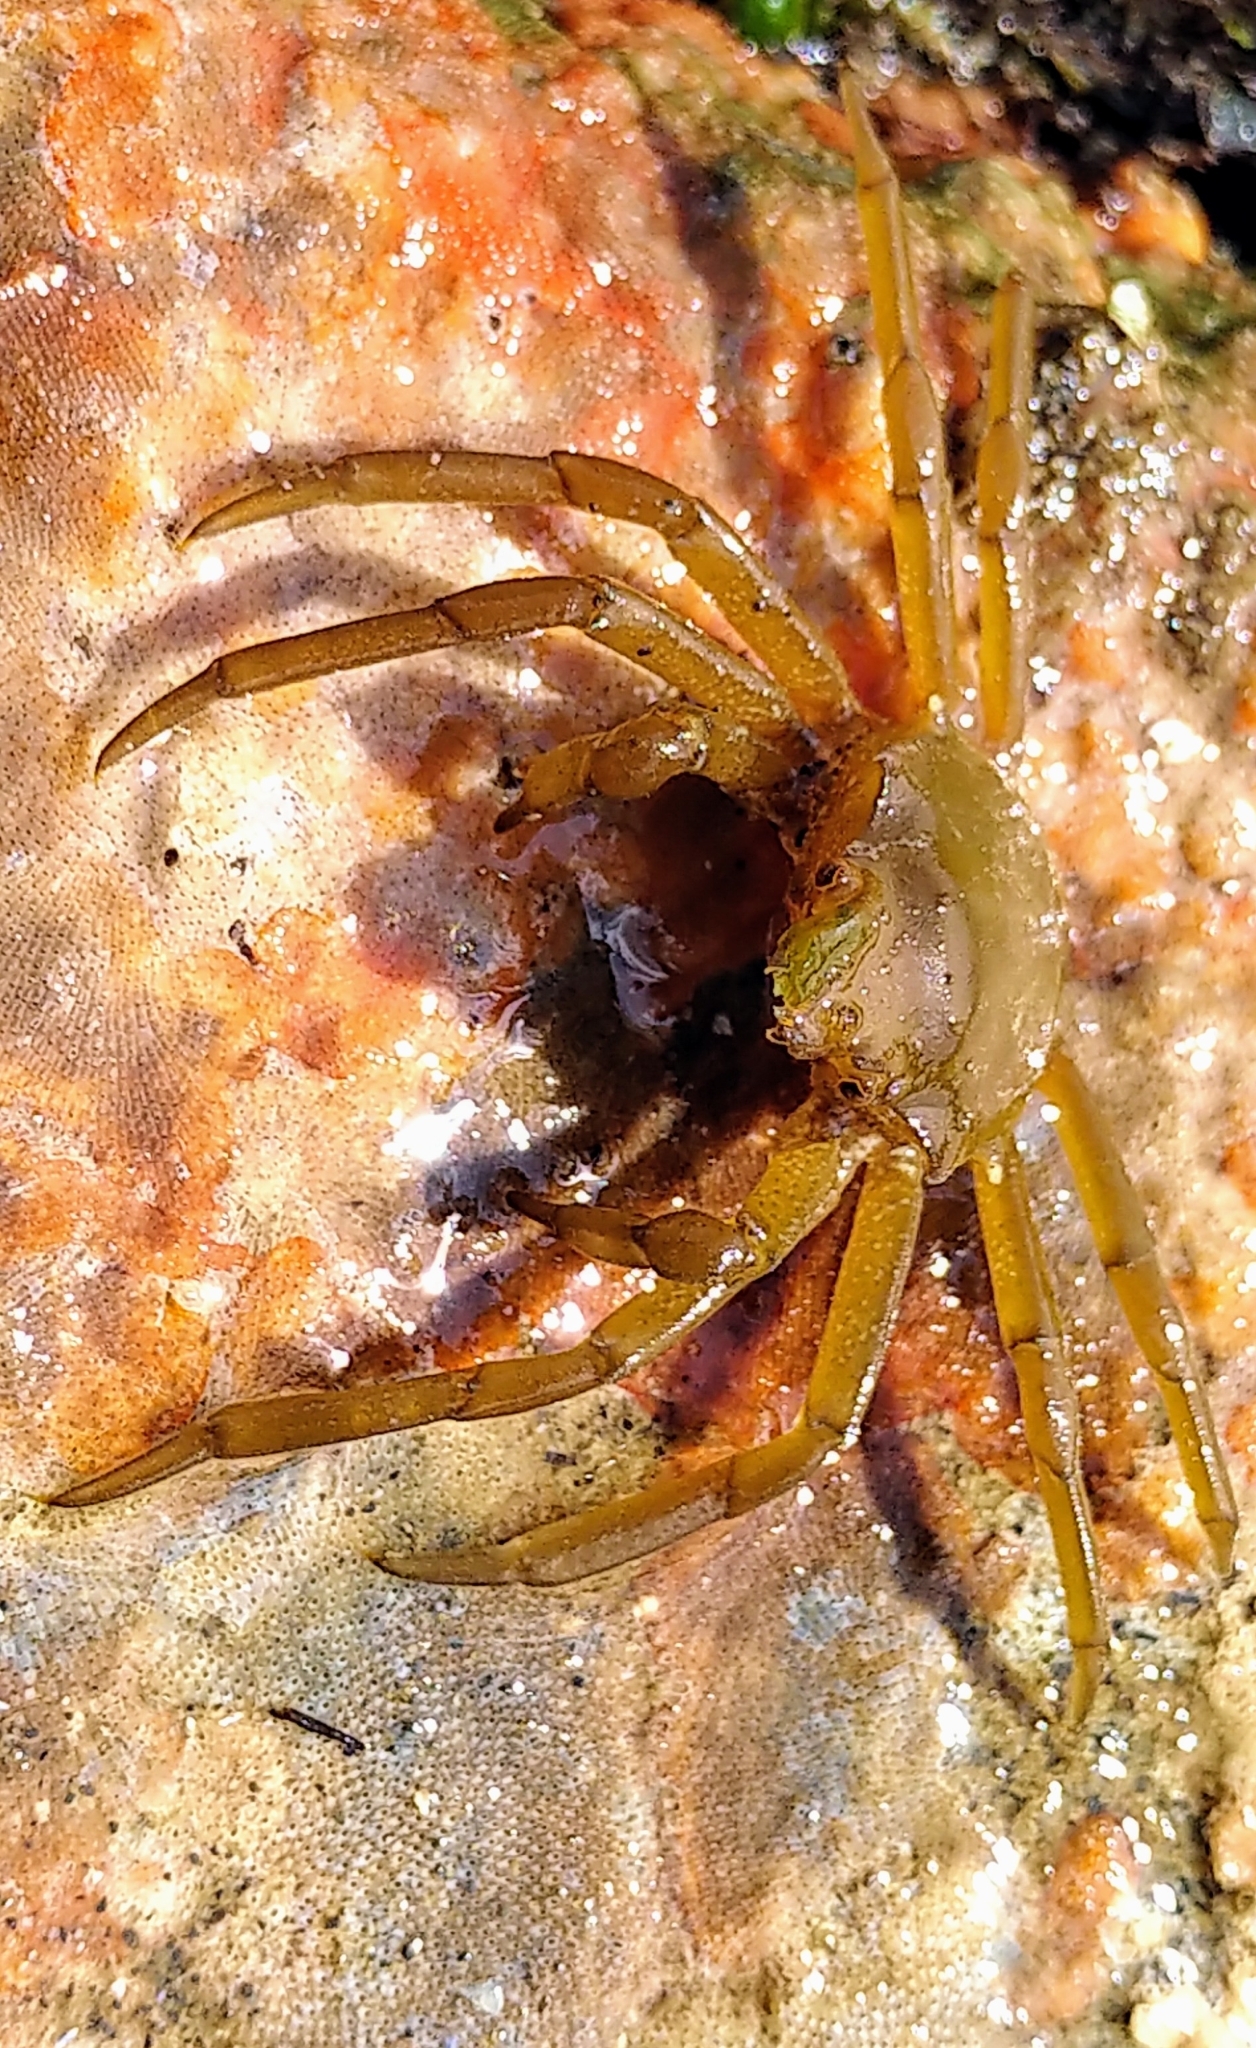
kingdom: Animalia
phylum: Arthropoda
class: Malacostraca
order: Decapoda
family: Epialtidae
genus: Pugettia
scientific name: Pugettia producta
